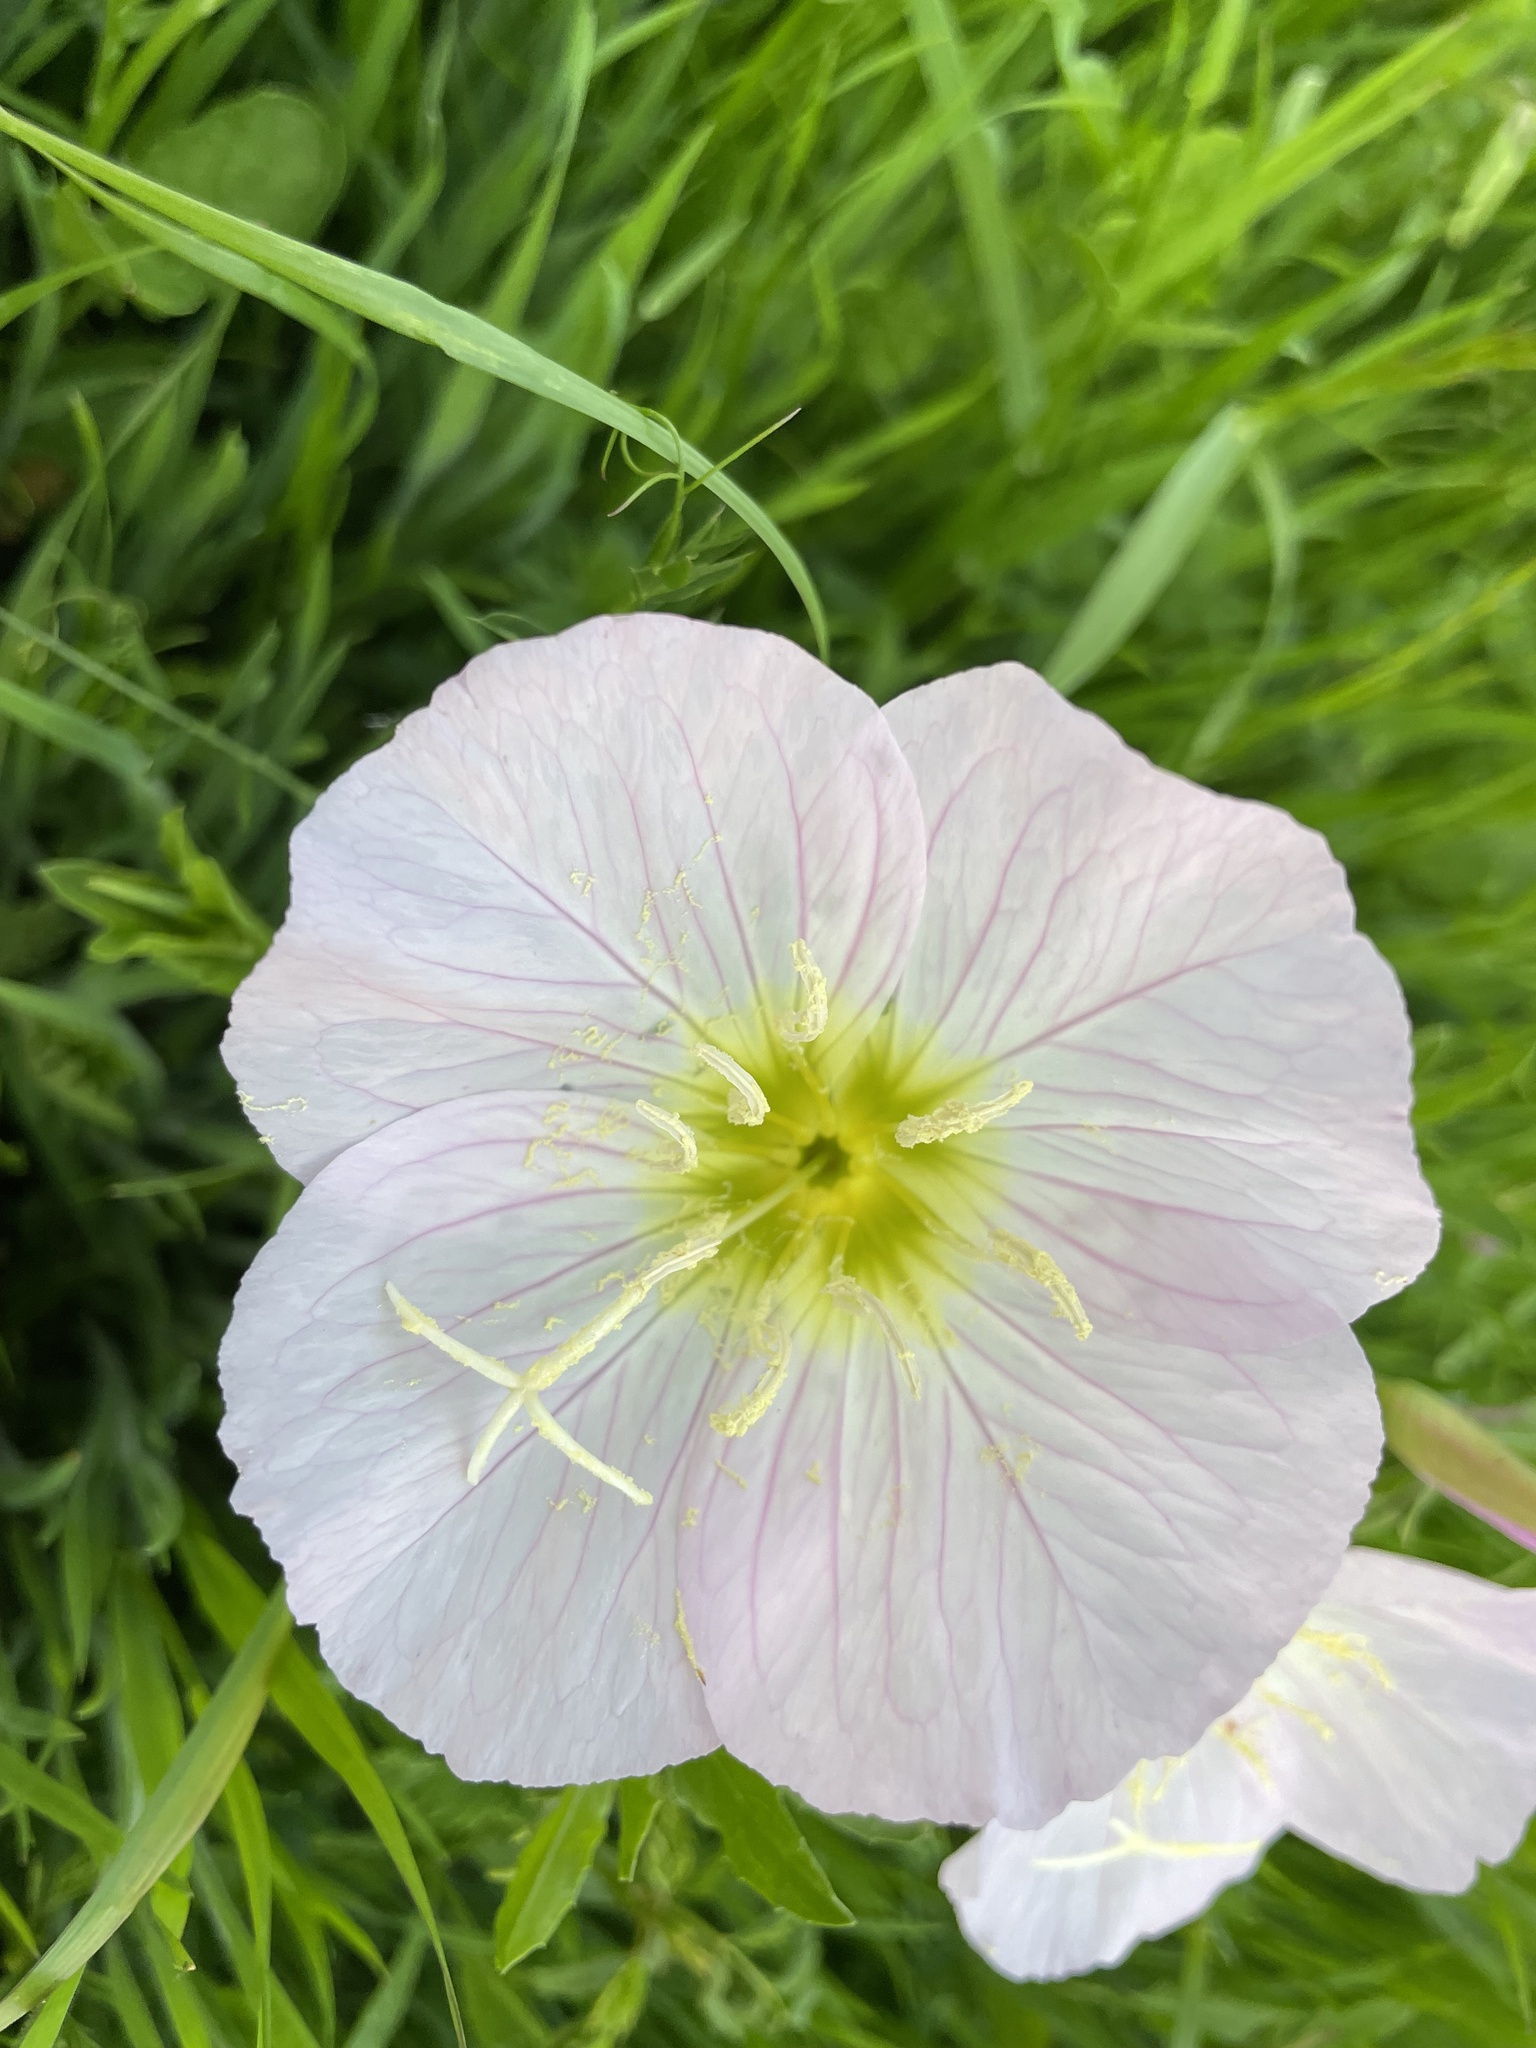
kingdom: Plantae
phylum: Tracheophyta
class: Magnoliopsida
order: Myrtales
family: Onagraceae
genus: Oenothera
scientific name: Oenothera speciosa
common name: White evening-primrose
